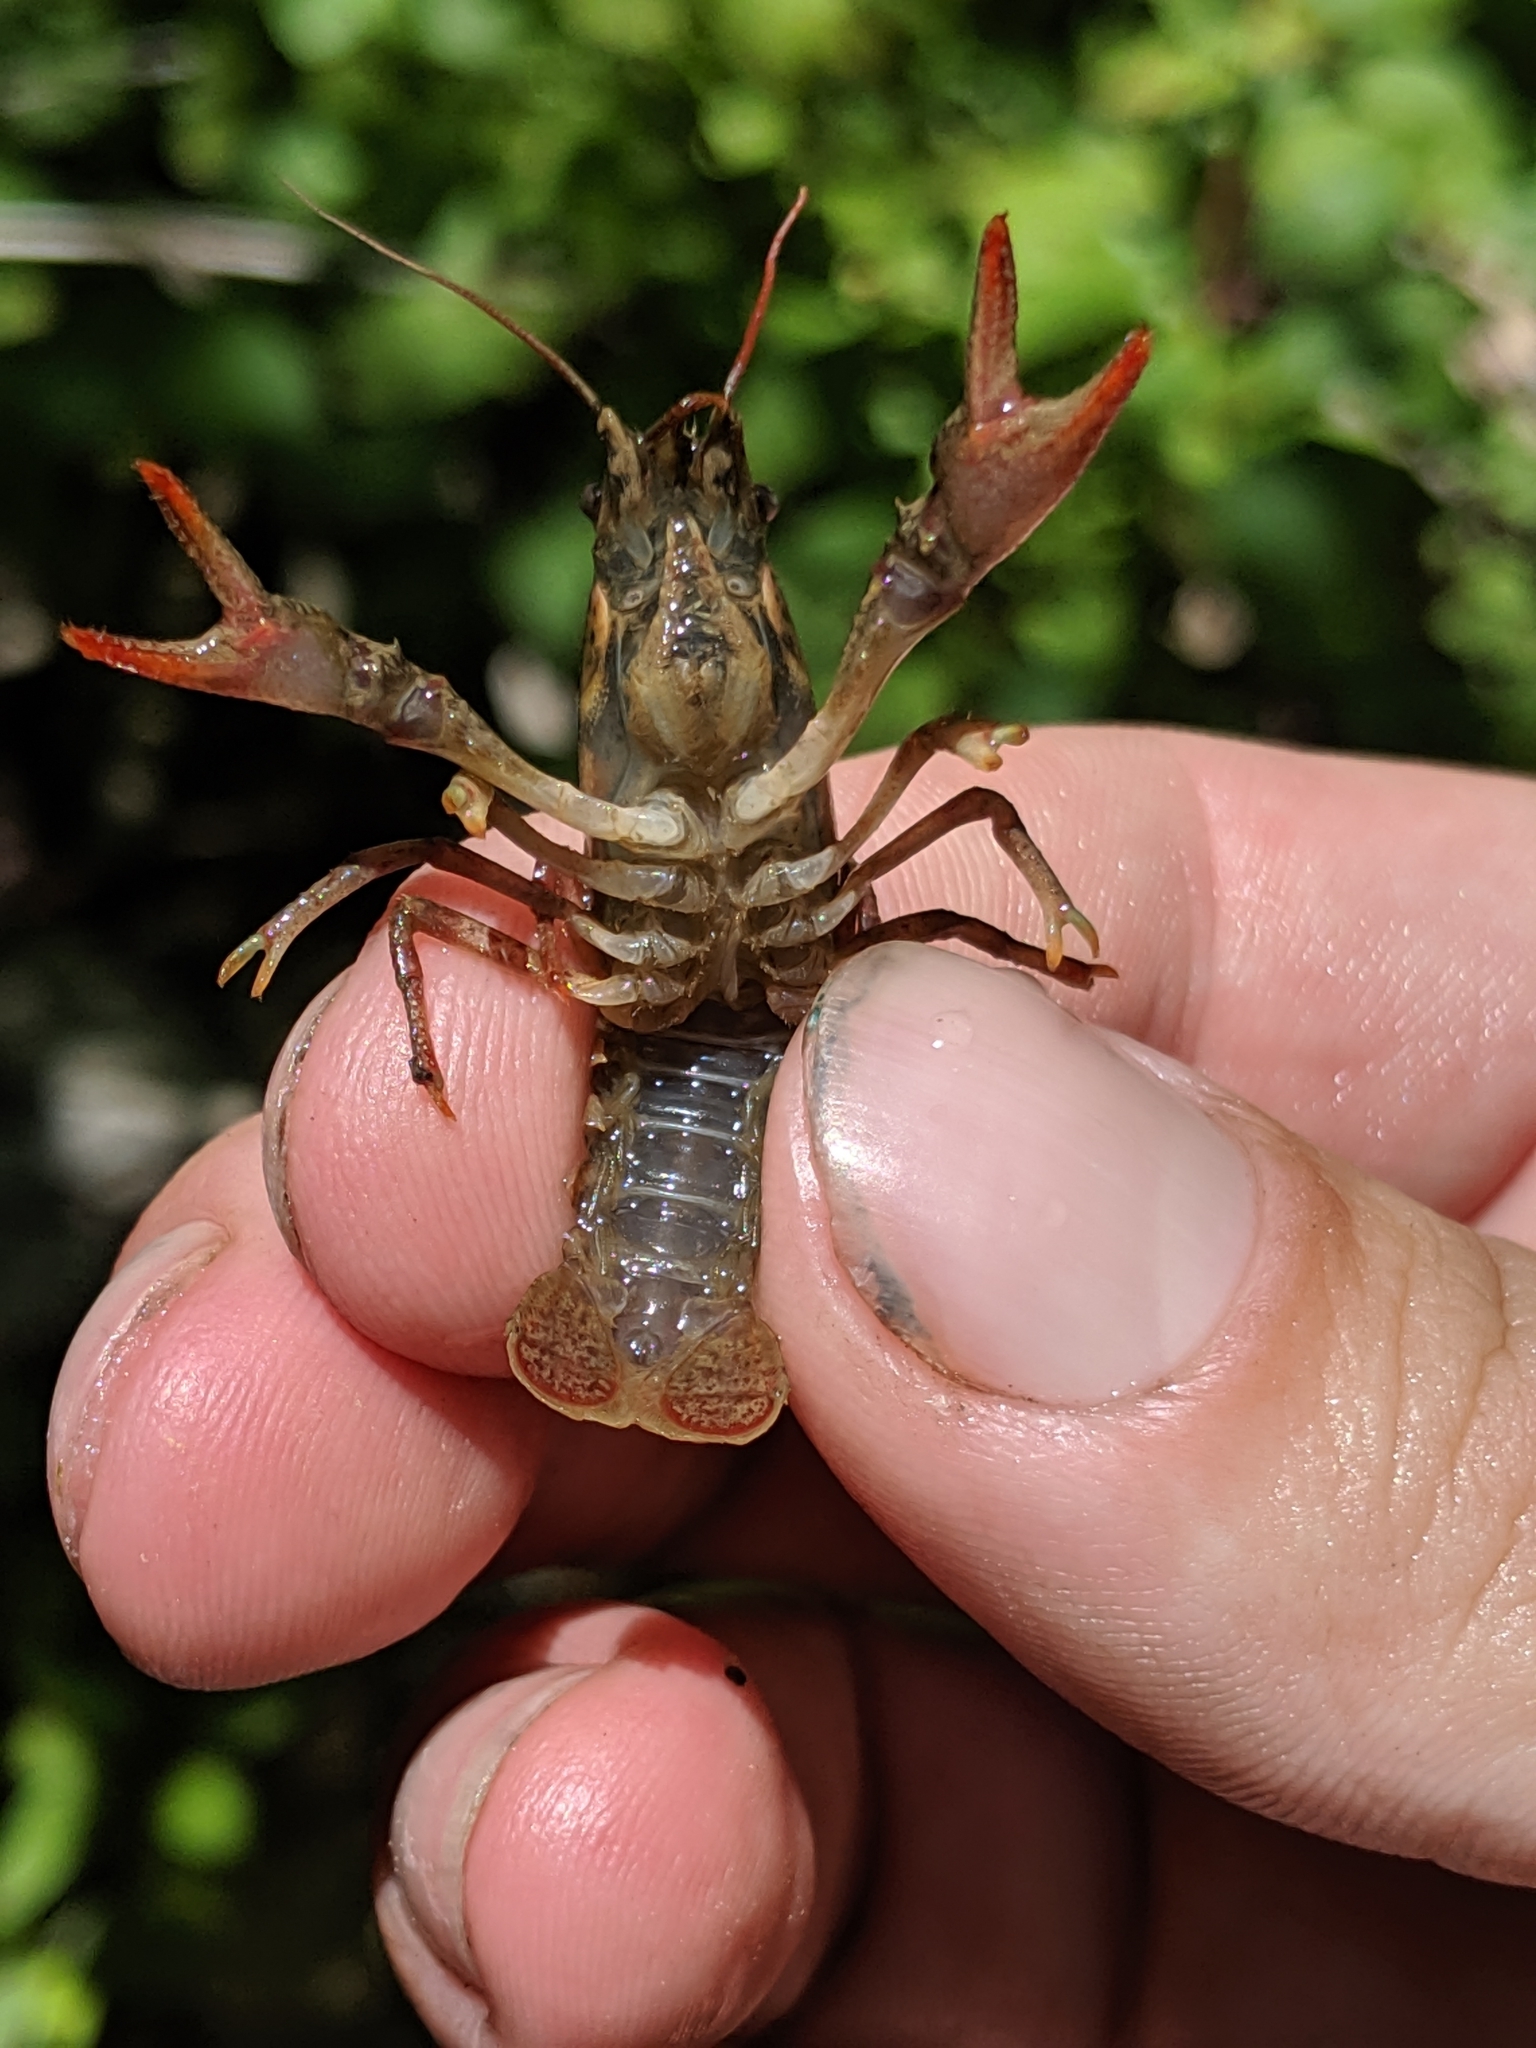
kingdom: Animalia
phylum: Arthropoda
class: Malacostraca
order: Decapoda
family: Cambaridae
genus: Faxonius
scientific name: Faxonius virilis
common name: Virile crayfish
